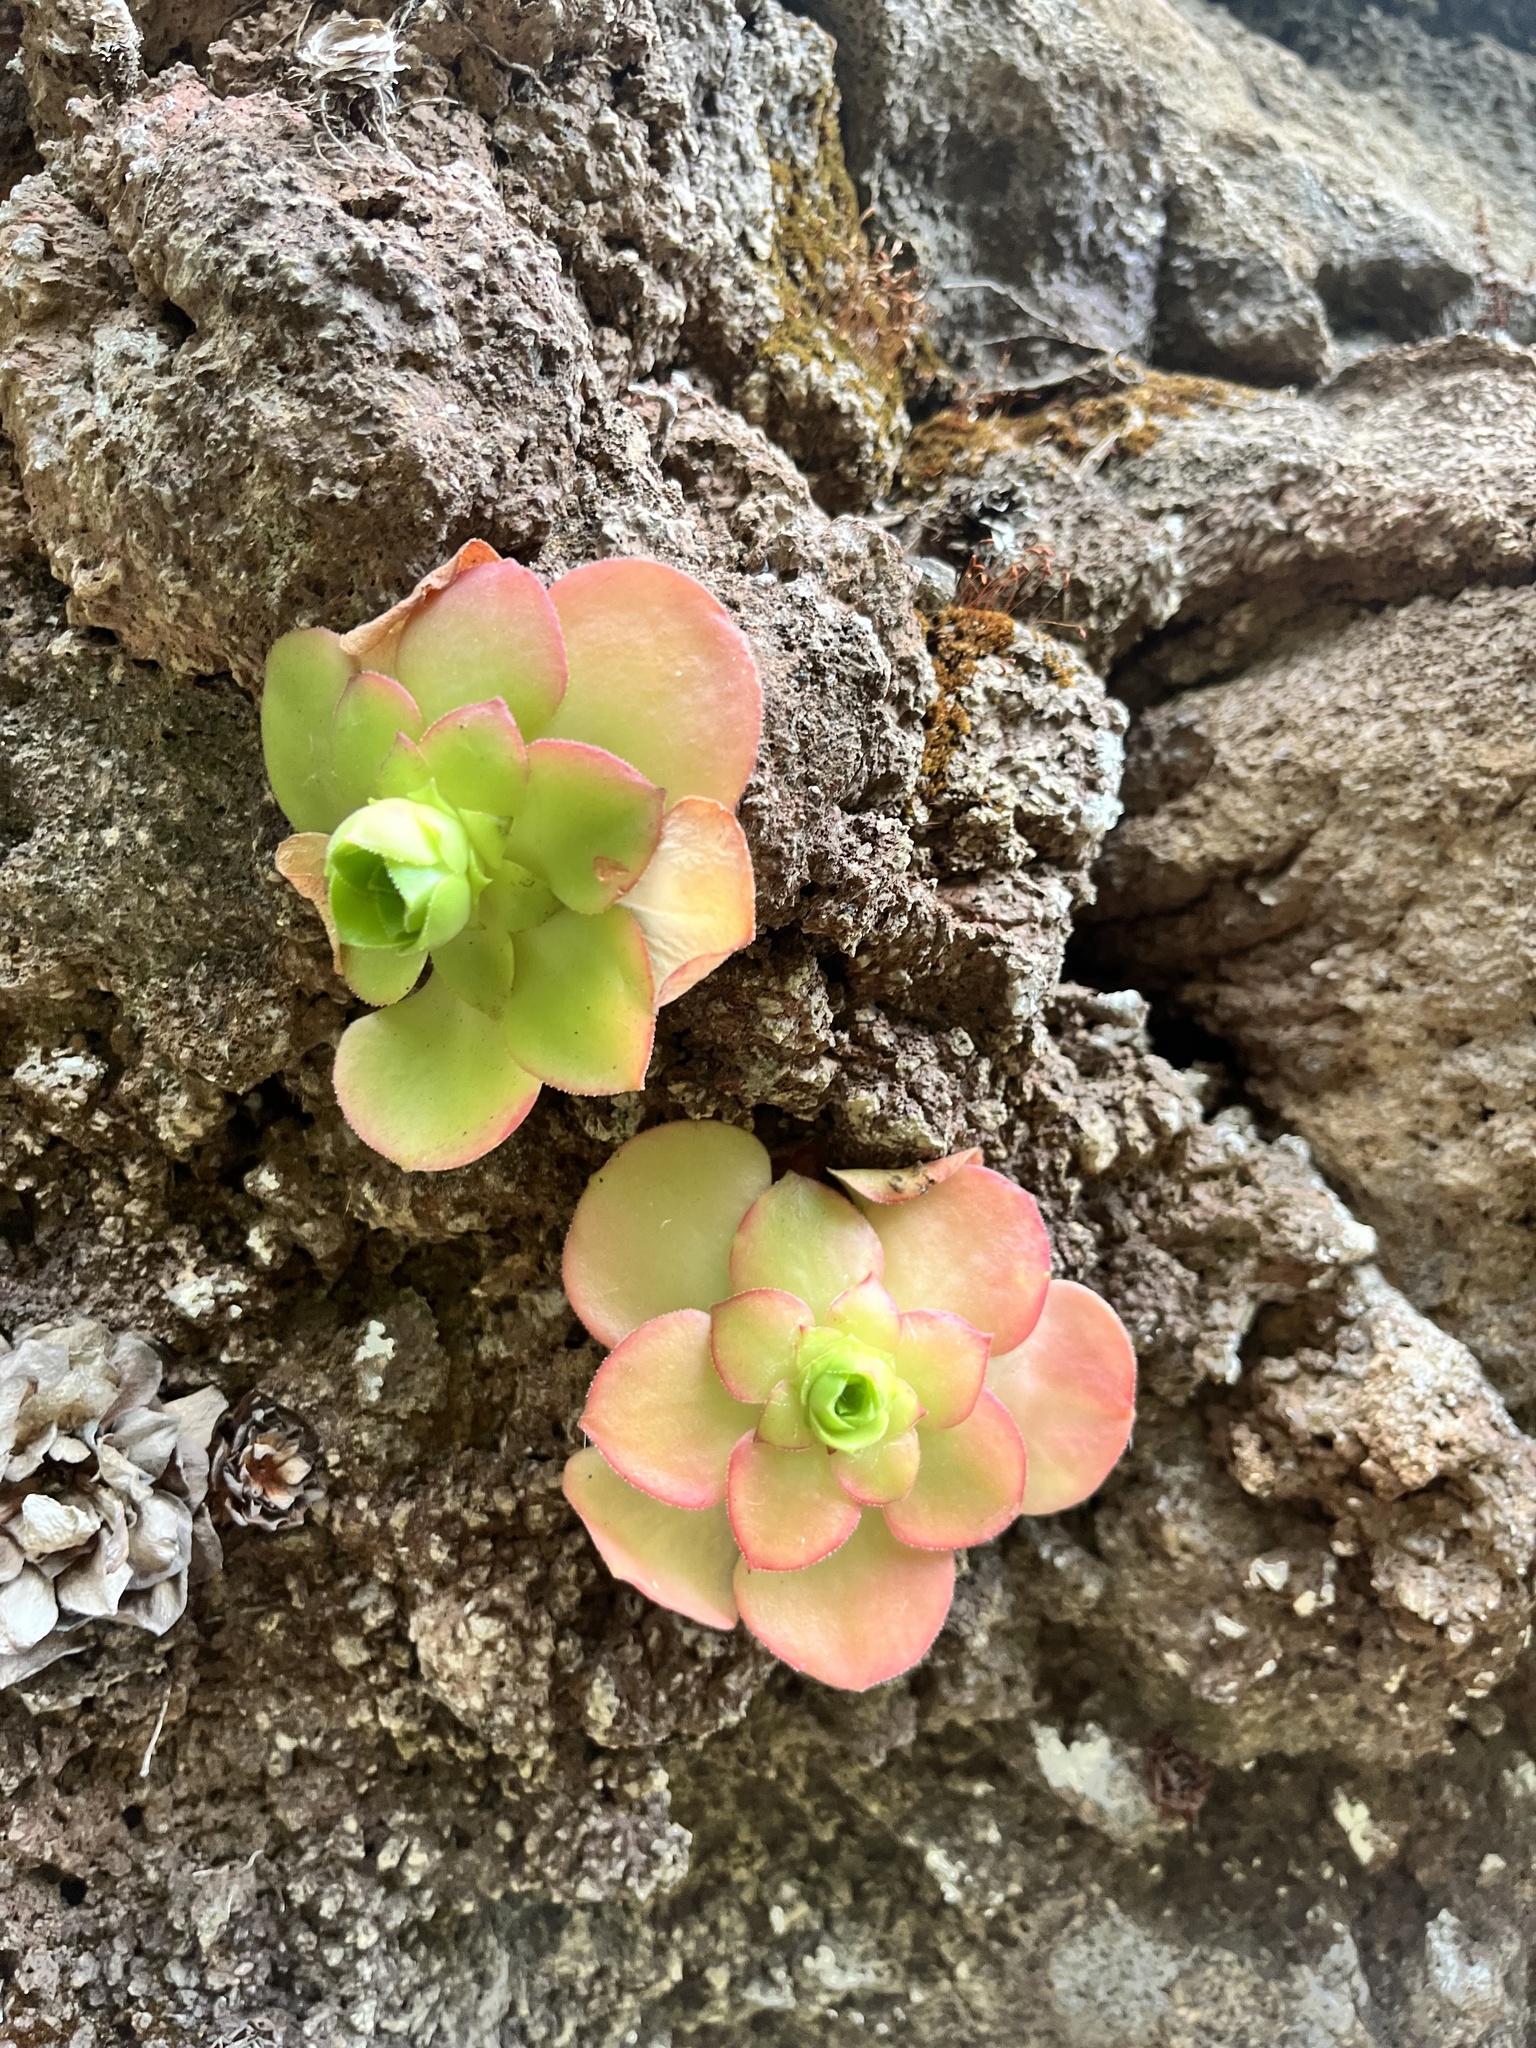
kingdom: Plantae
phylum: Tracheophyta
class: Magnoliopsida
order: Saxifragales
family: Crassulaceae
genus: Aeonium
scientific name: Aeonium glandulosum
